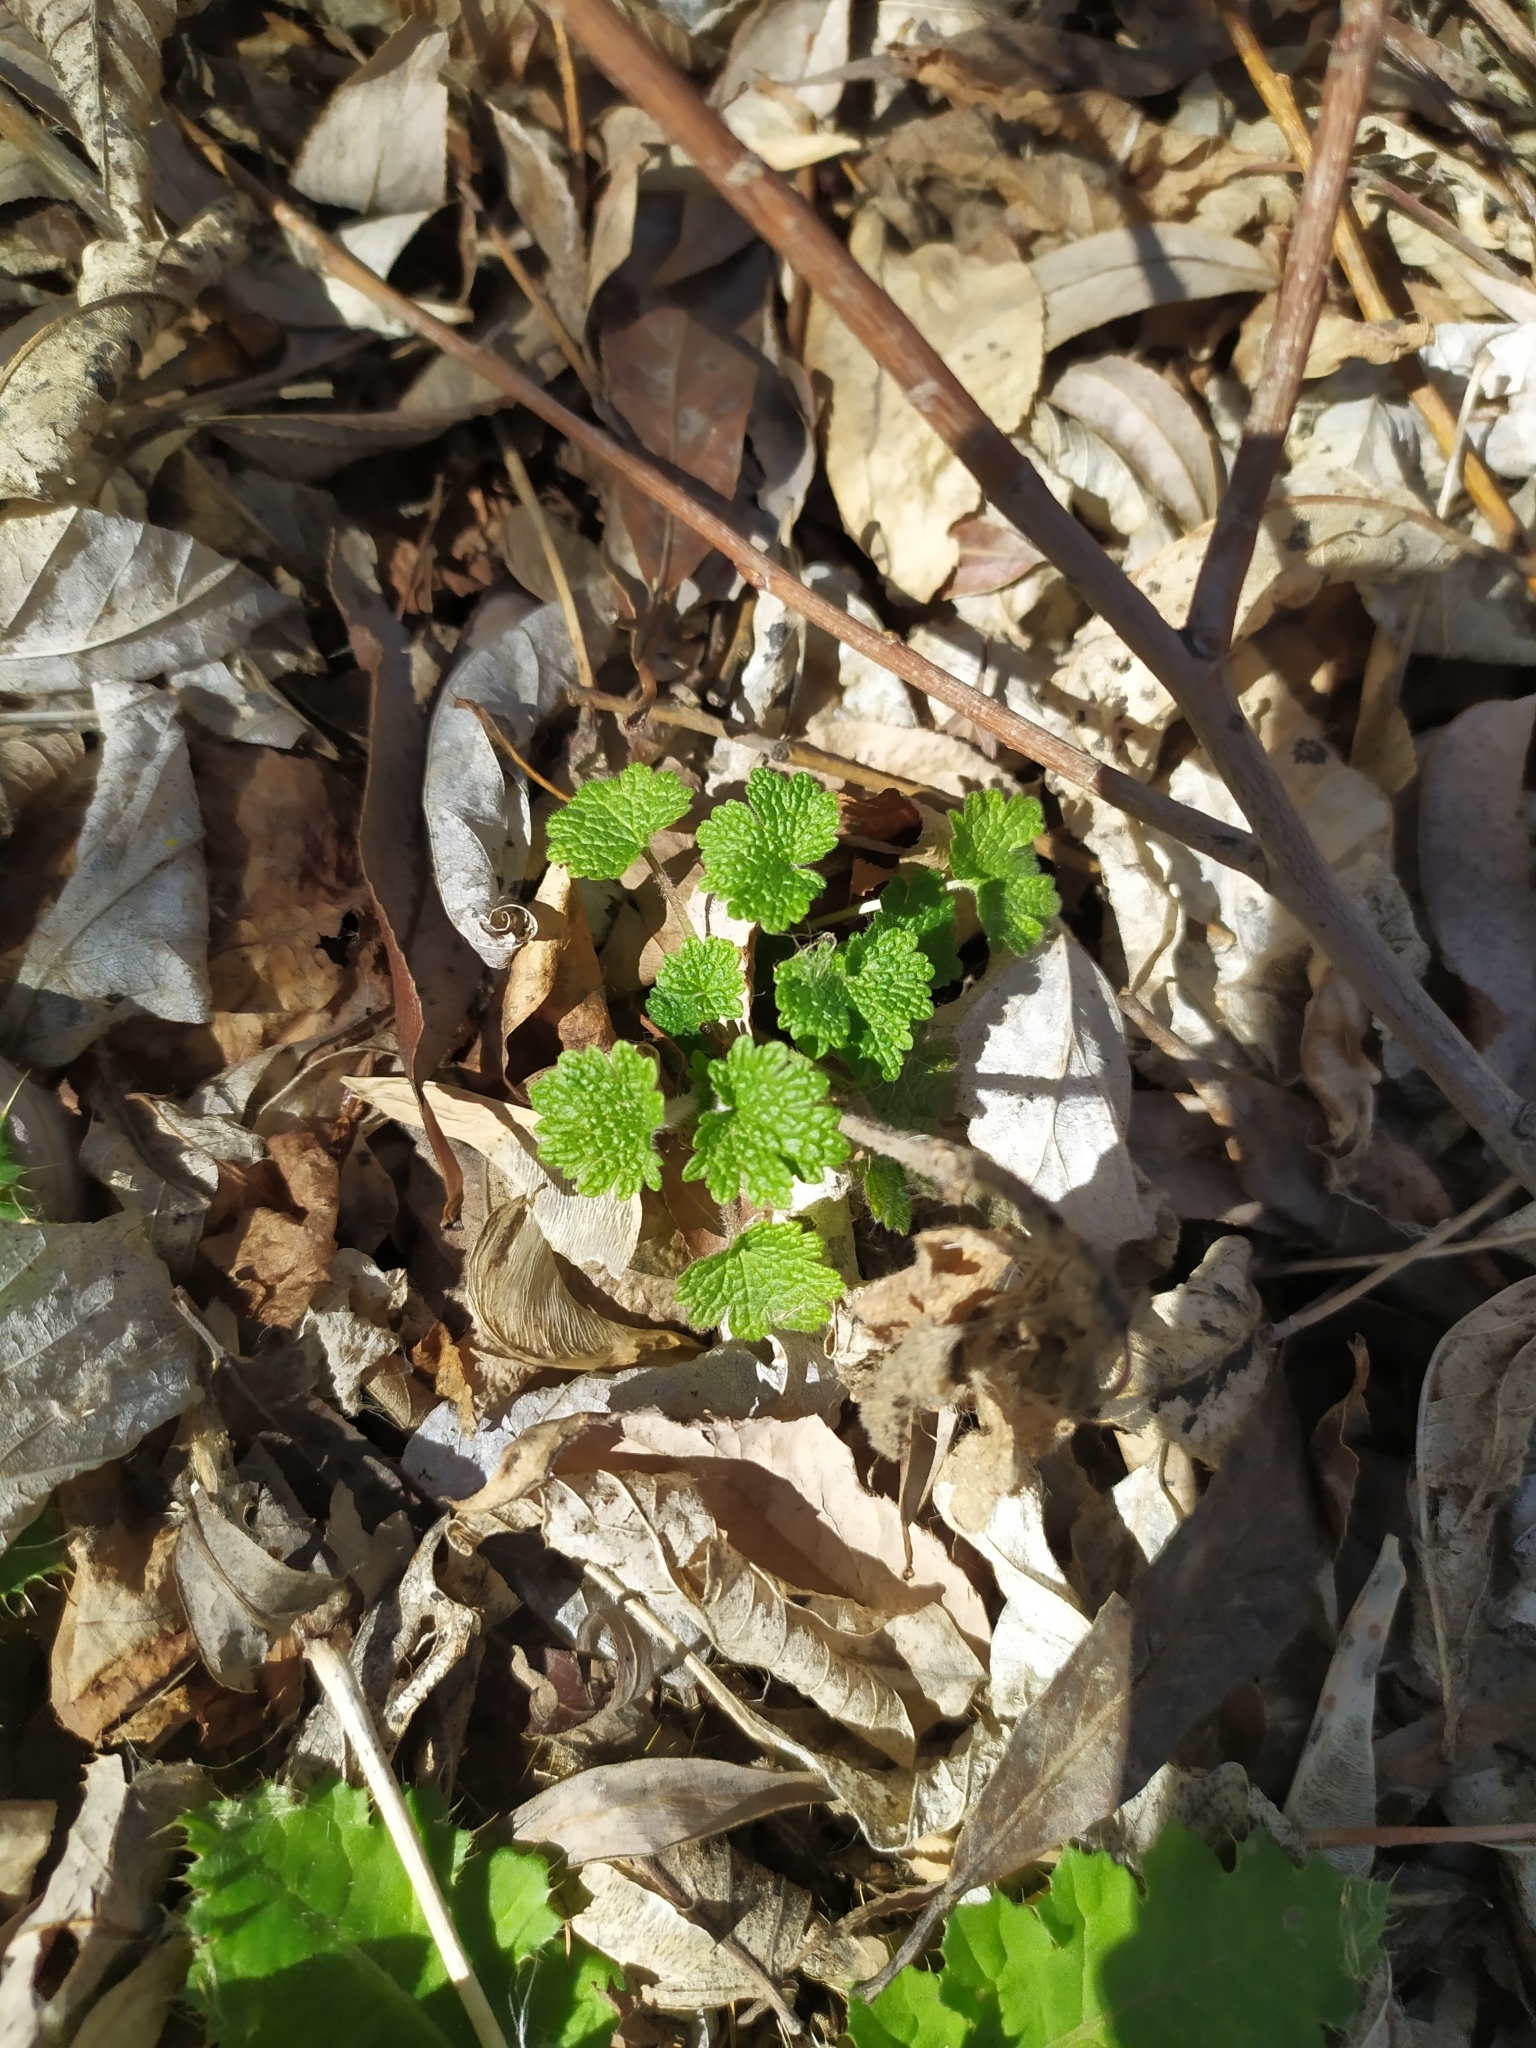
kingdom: Plantae
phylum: Tracheophyta
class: Magnoliopsida
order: Lamiales
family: Lamiaceae
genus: Leonurus
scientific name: Leonurus quinquelobatus
